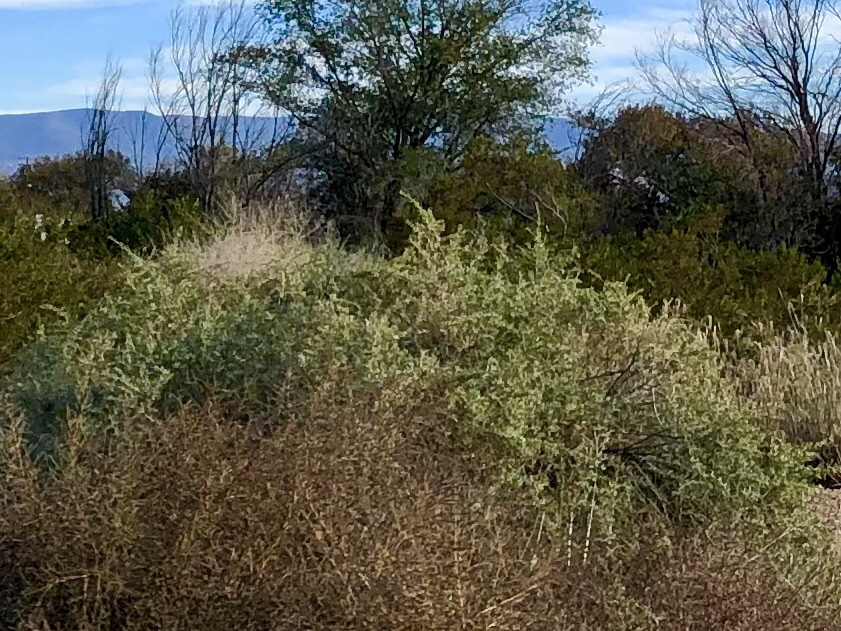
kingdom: Plantae
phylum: Tracheophyta
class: Magnoliopsida
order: Caryophyllales
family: Amaranthaceae
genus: Atriplex
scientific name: Atriplex canescens
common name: Four-wing saltbush
